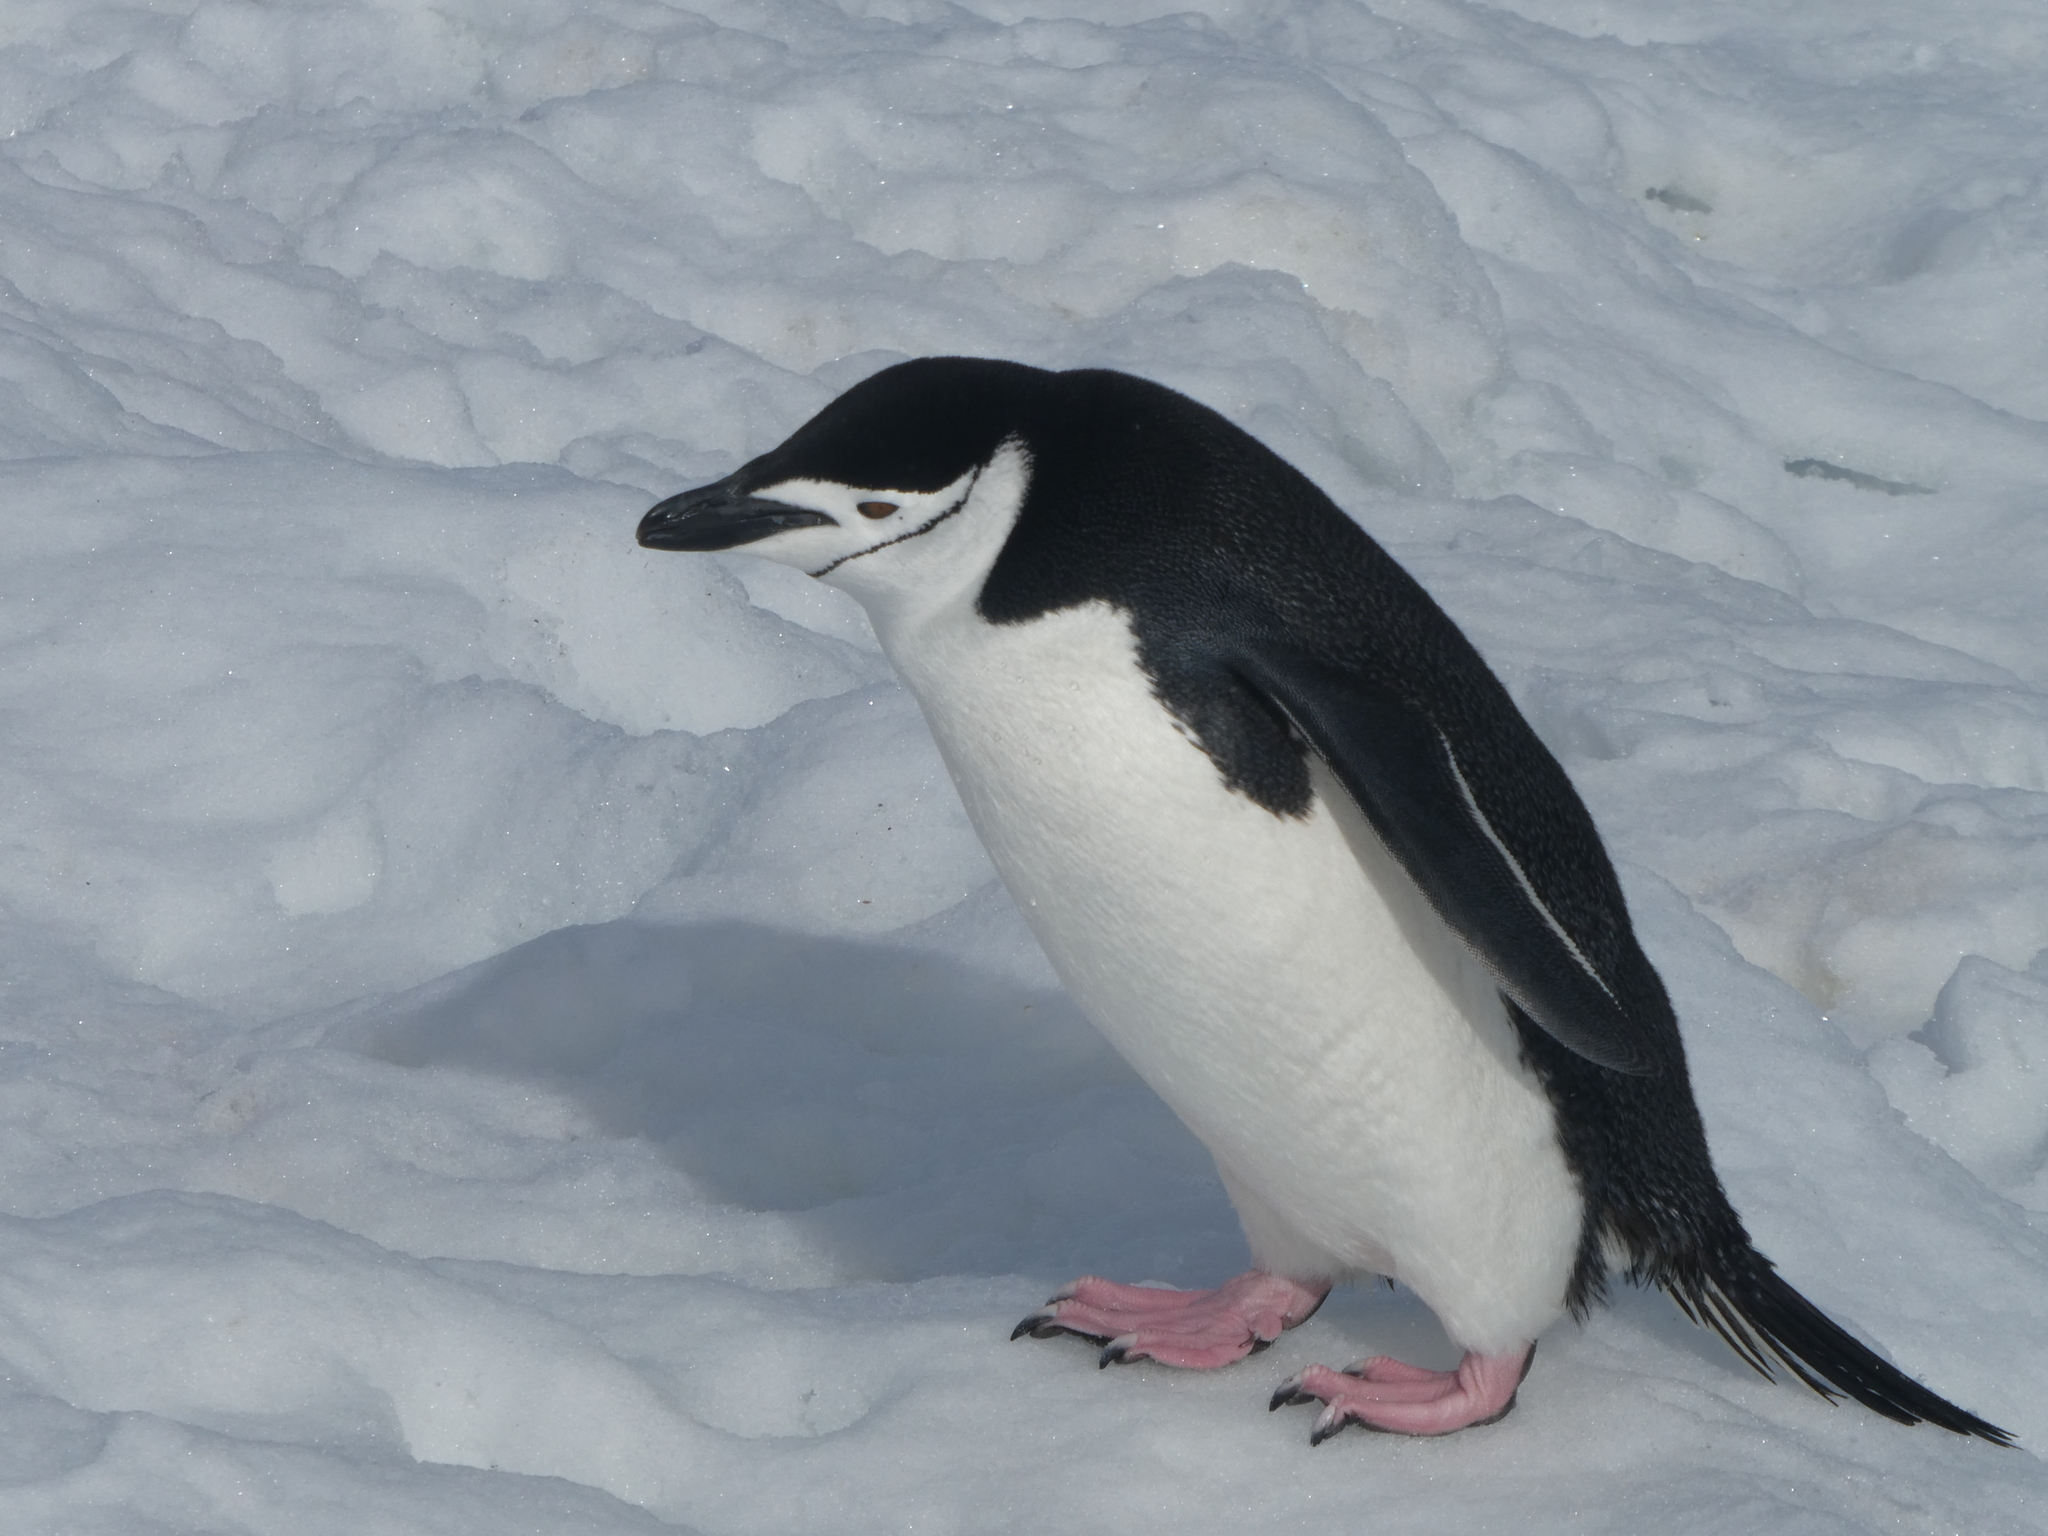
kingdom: Animalia
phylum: Chordata
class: Aves
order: Sphenisciformes
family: Spheniscidae
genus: Pygoscelis
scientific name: Pygoscelis antarcticus
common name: Chinstrap penguin
